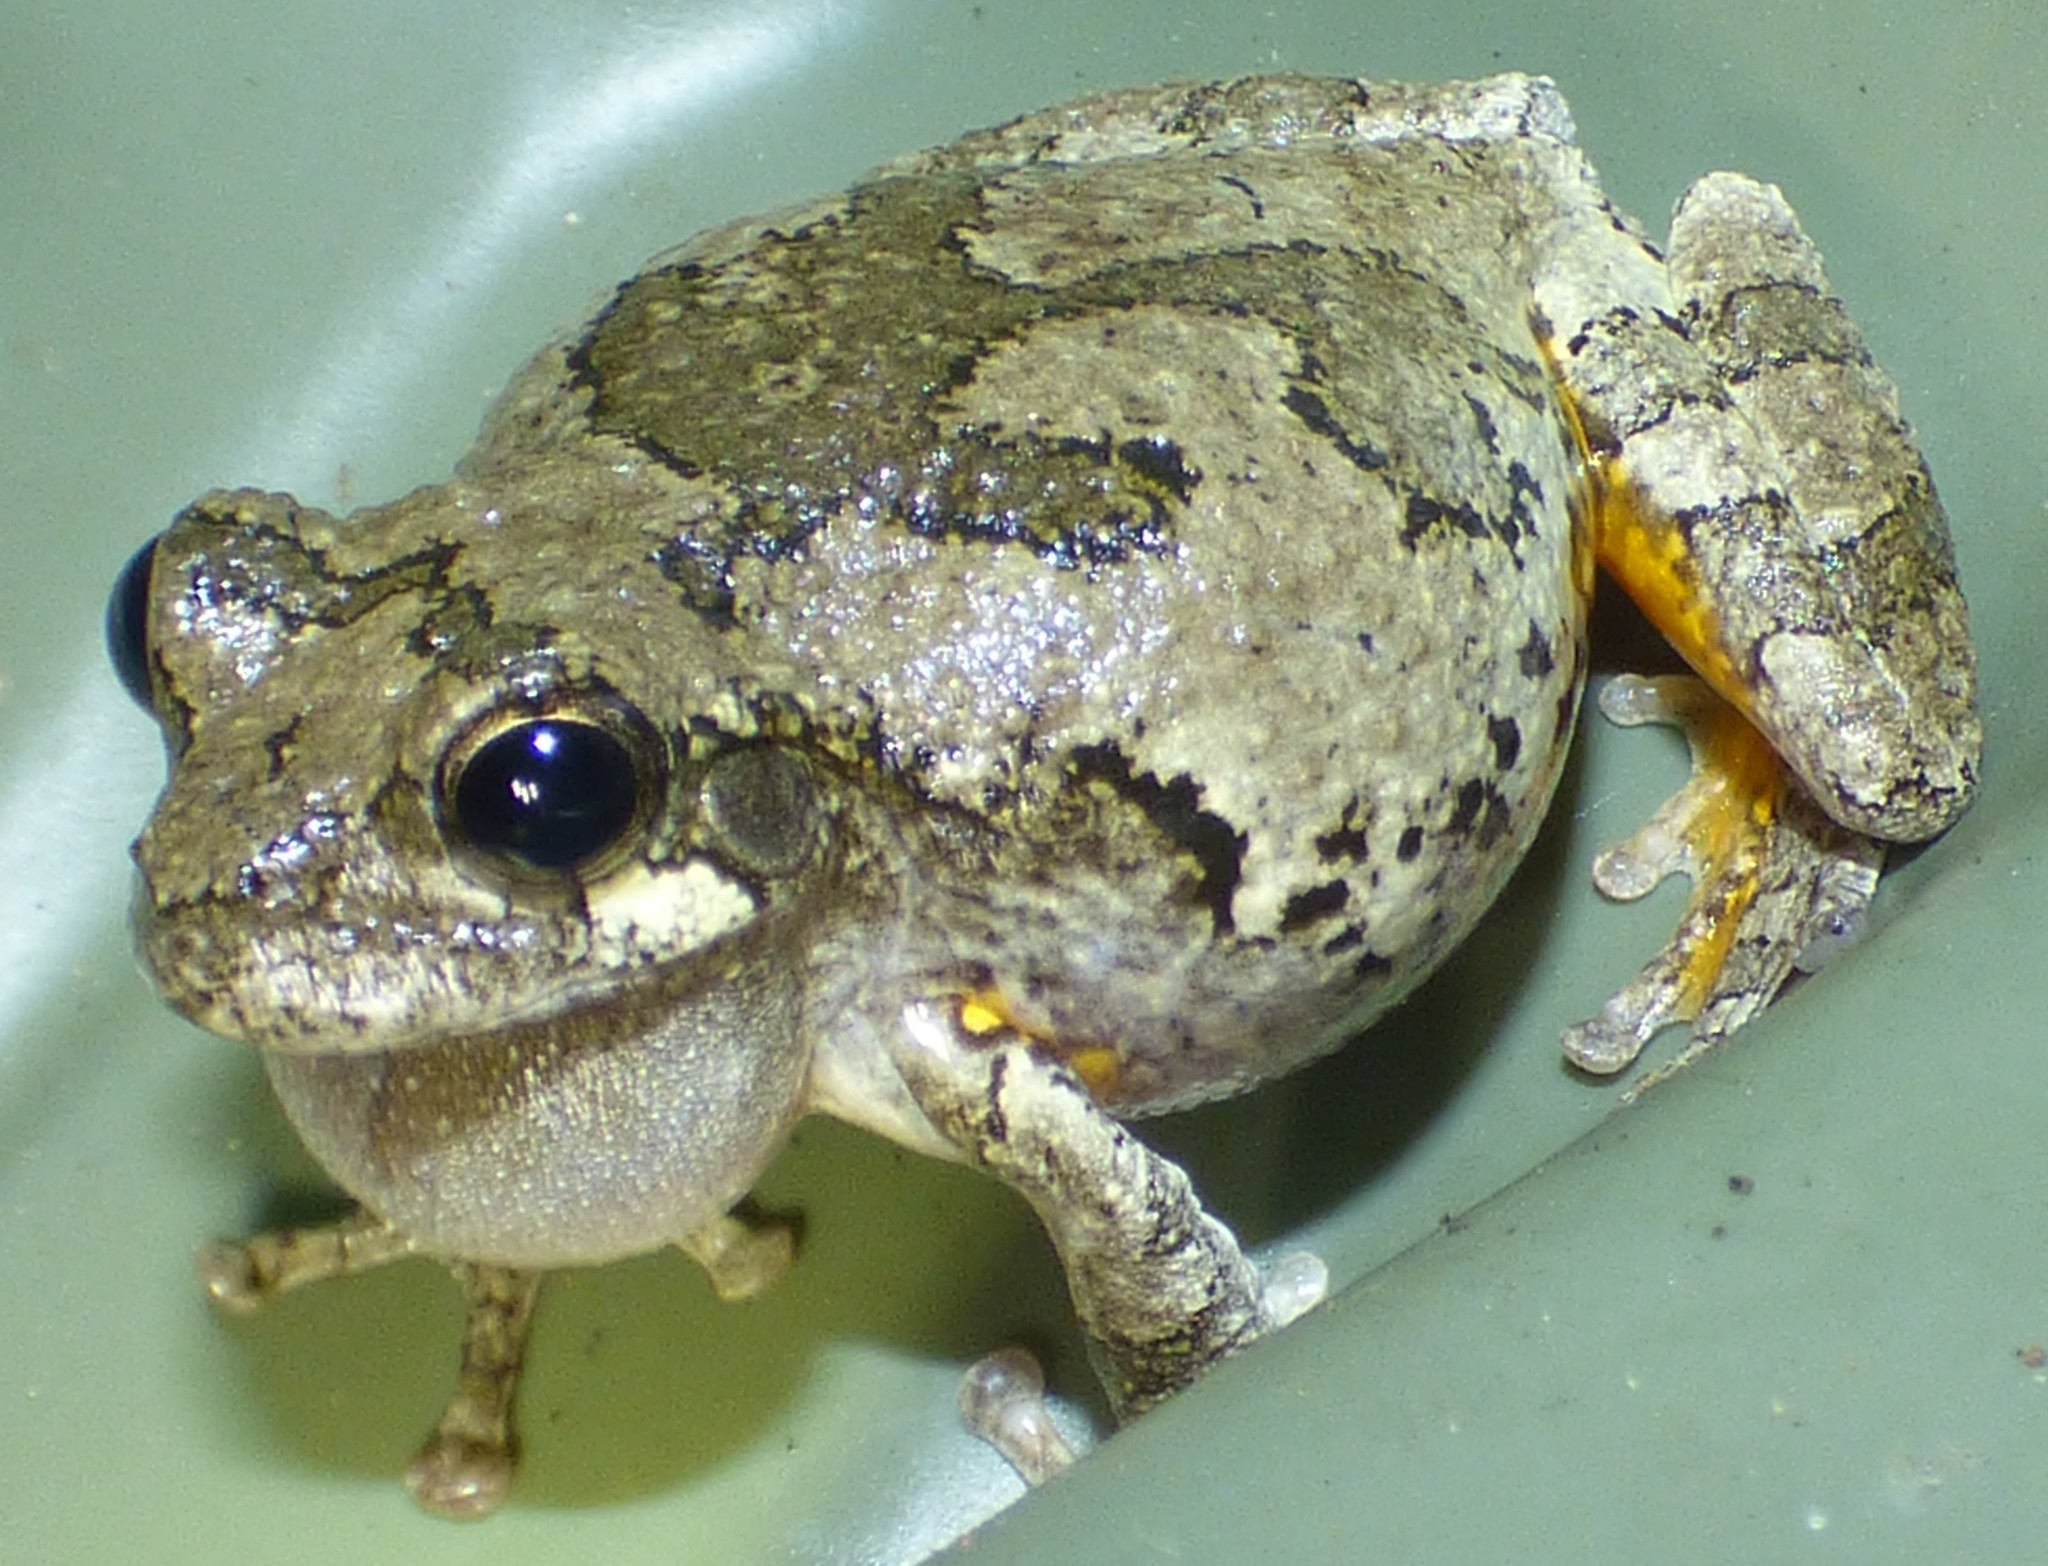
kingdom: Animalia
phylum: Chordata
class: Amphibia
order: Anura
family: Hylidae
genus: Dryophytes
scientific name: Dryophytes chrysoscelis
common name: Cope's gray treefrog
